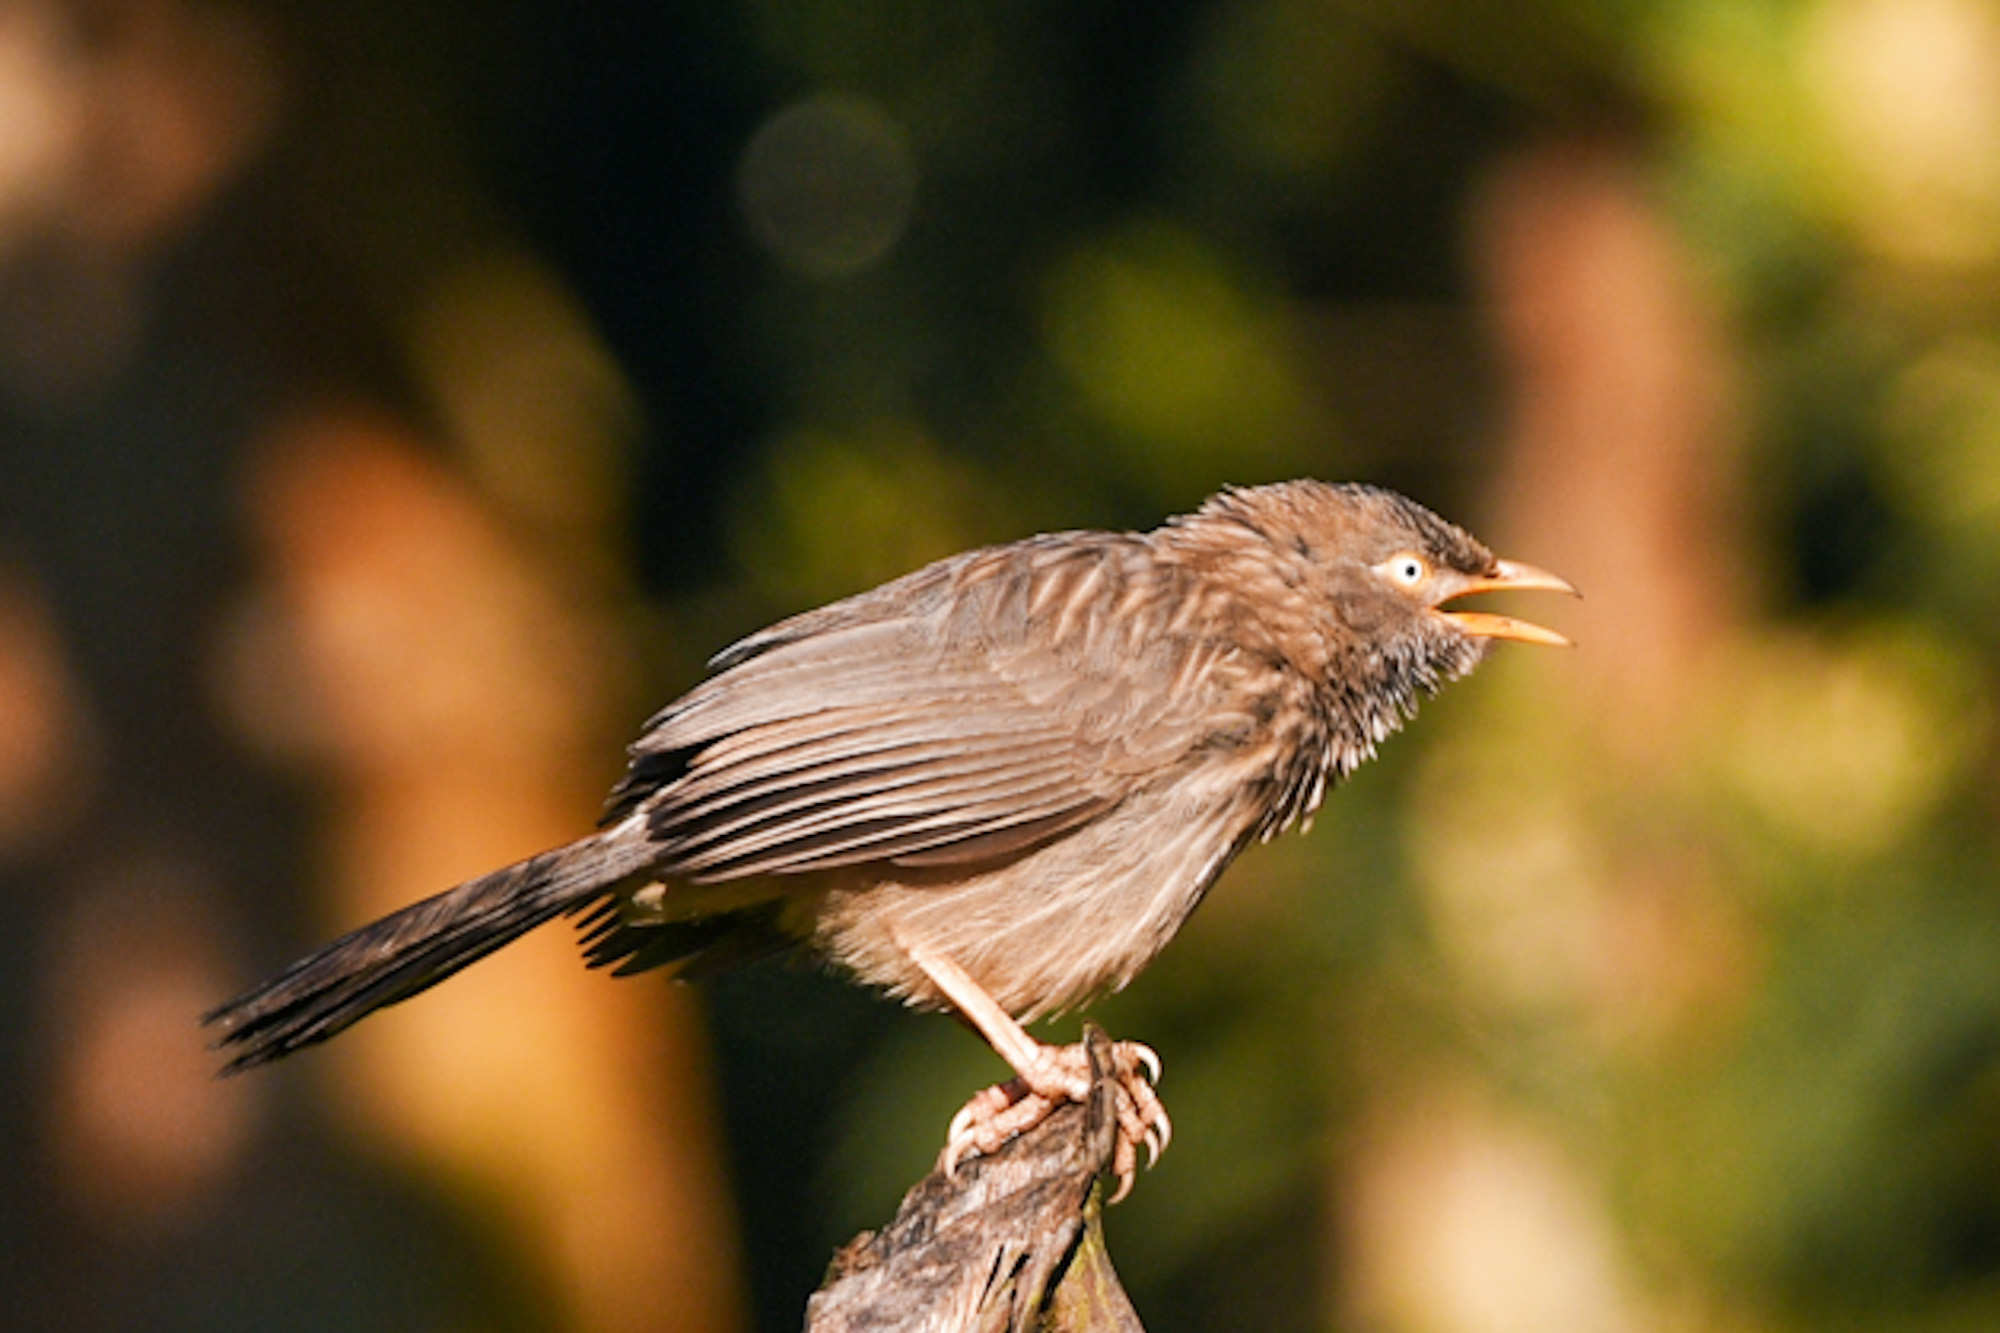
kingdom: Animalia
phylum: Chordata
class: Aves
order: Passeriformes
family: Leiothrichidae
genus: Turdoides
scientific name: Turdoides striata
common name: Jungle babbler
